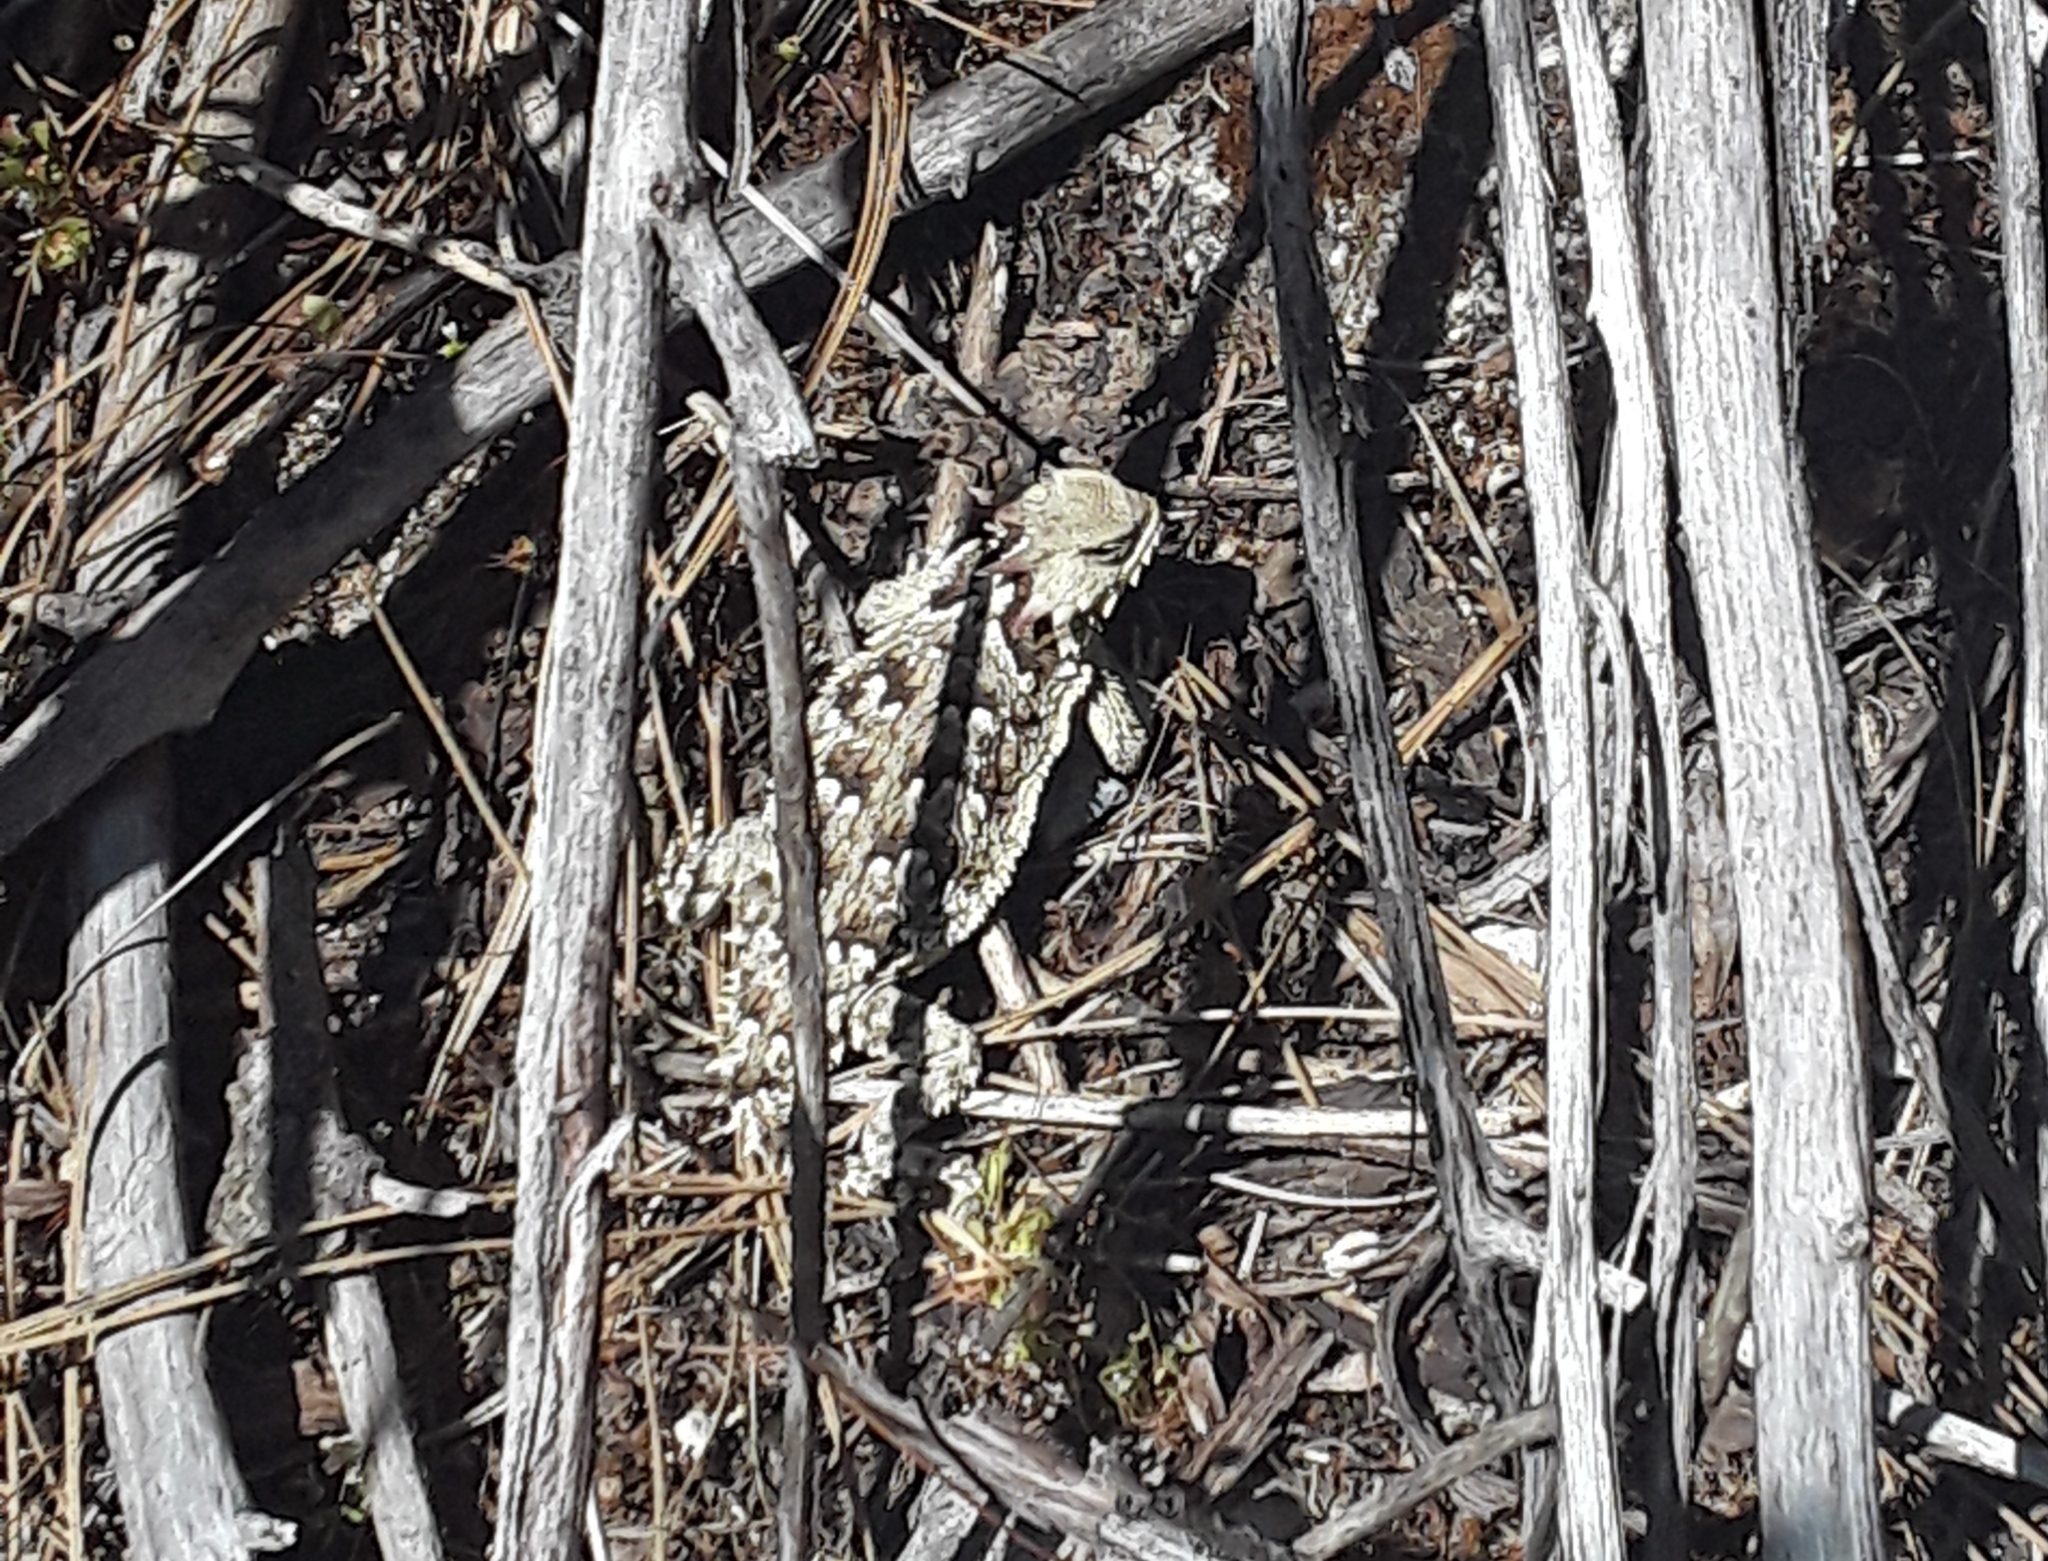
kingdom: Animalia
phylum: Chordata
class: Squamata
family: Phrynosomatidae
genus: Phrynosoma
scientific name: Phrynosoma blainvillii
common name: San diego horned lizard
